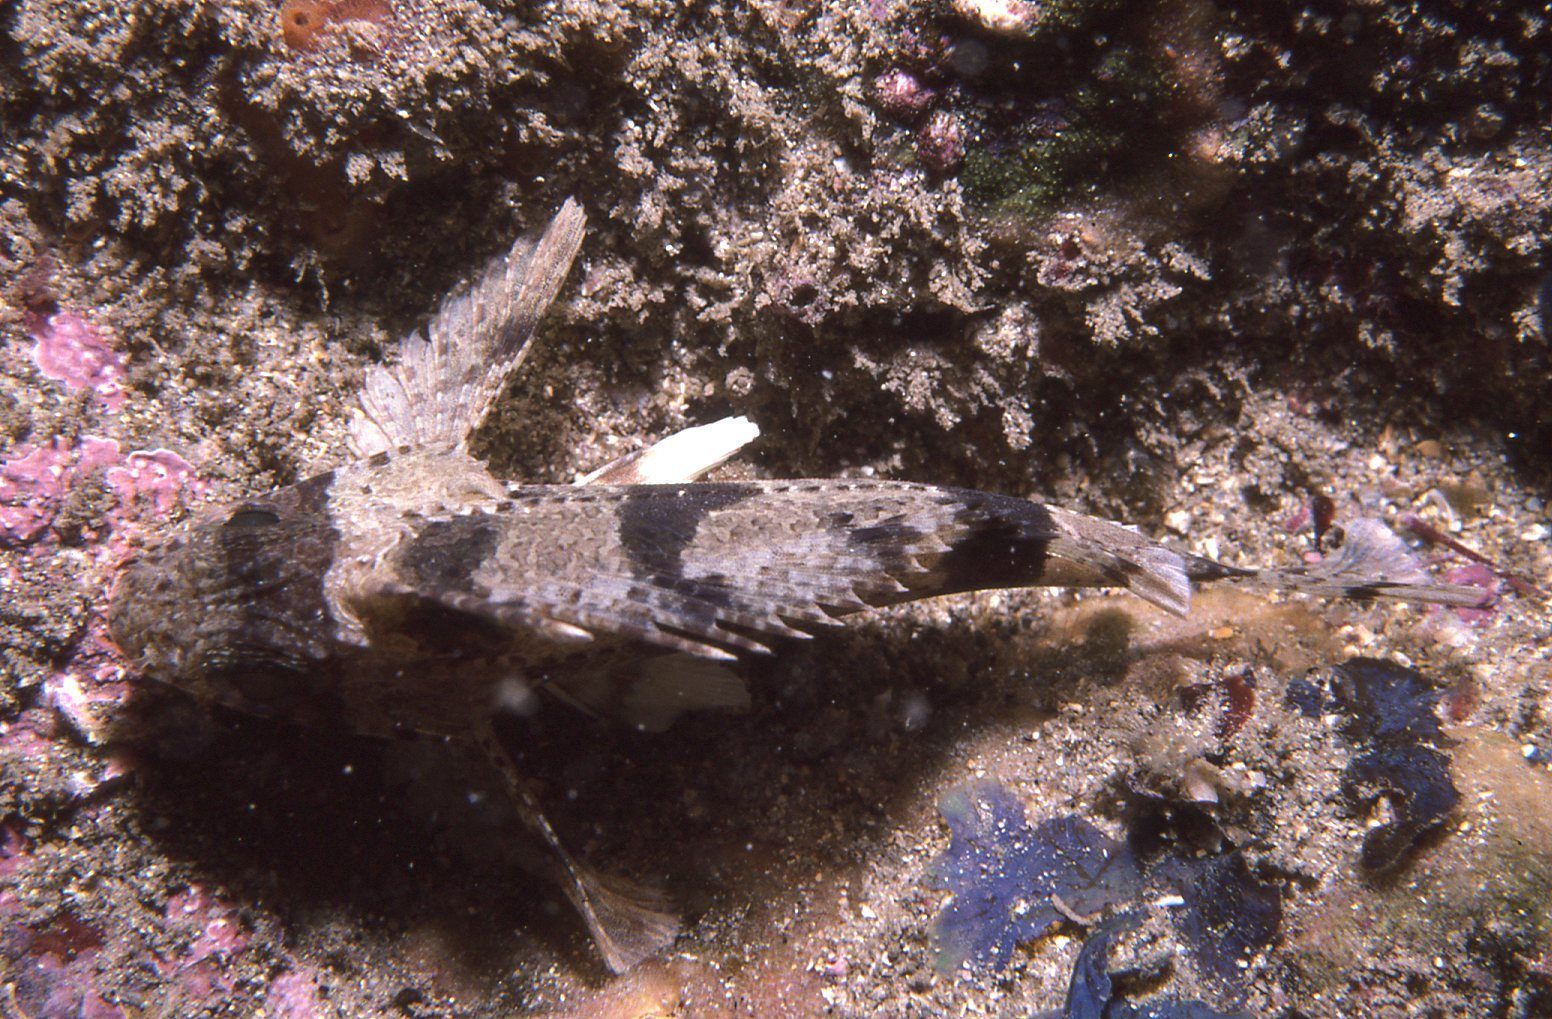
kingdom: Animalia
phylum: Chordata
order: Scorpaeniformes
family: Tetrarogidae
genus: Centropogon
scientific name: Centropogon australis
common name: Fortescue
